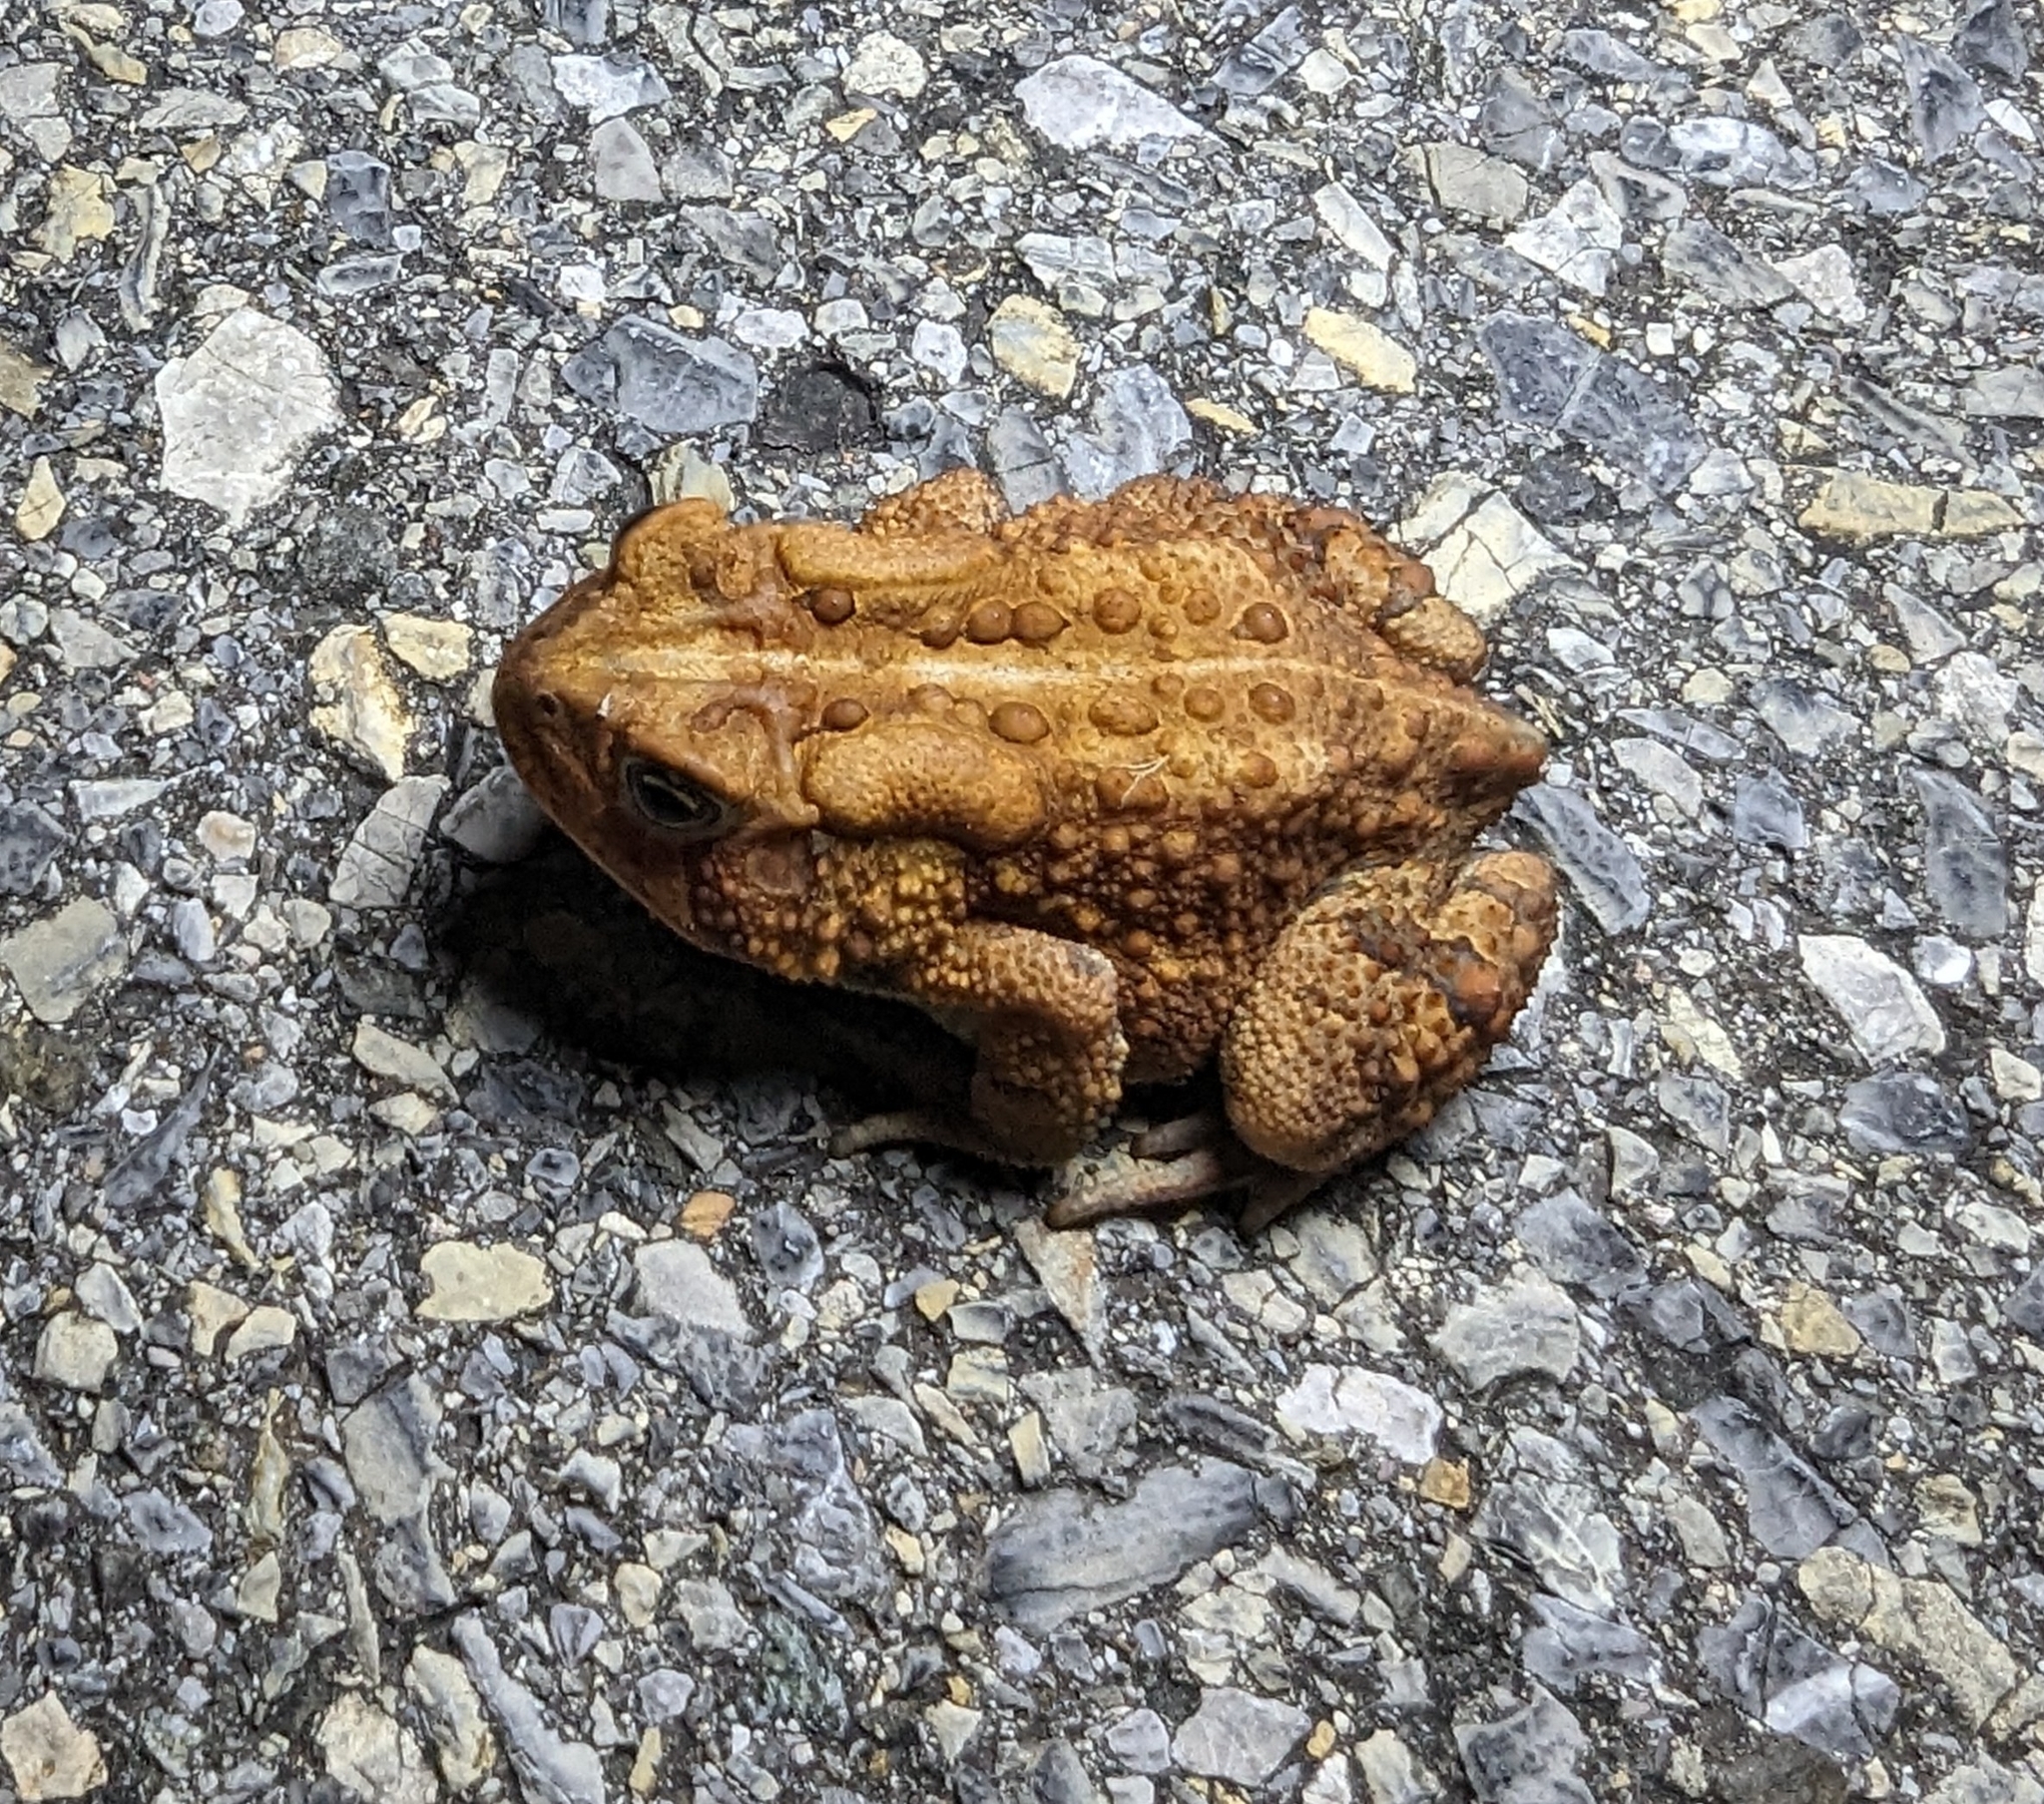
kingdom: Animalia
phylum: Chordata
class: Amphibia
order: Anura
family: Bufonidae
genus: Anaxyrus
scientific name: Anaxyrus americanus
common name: American toad
